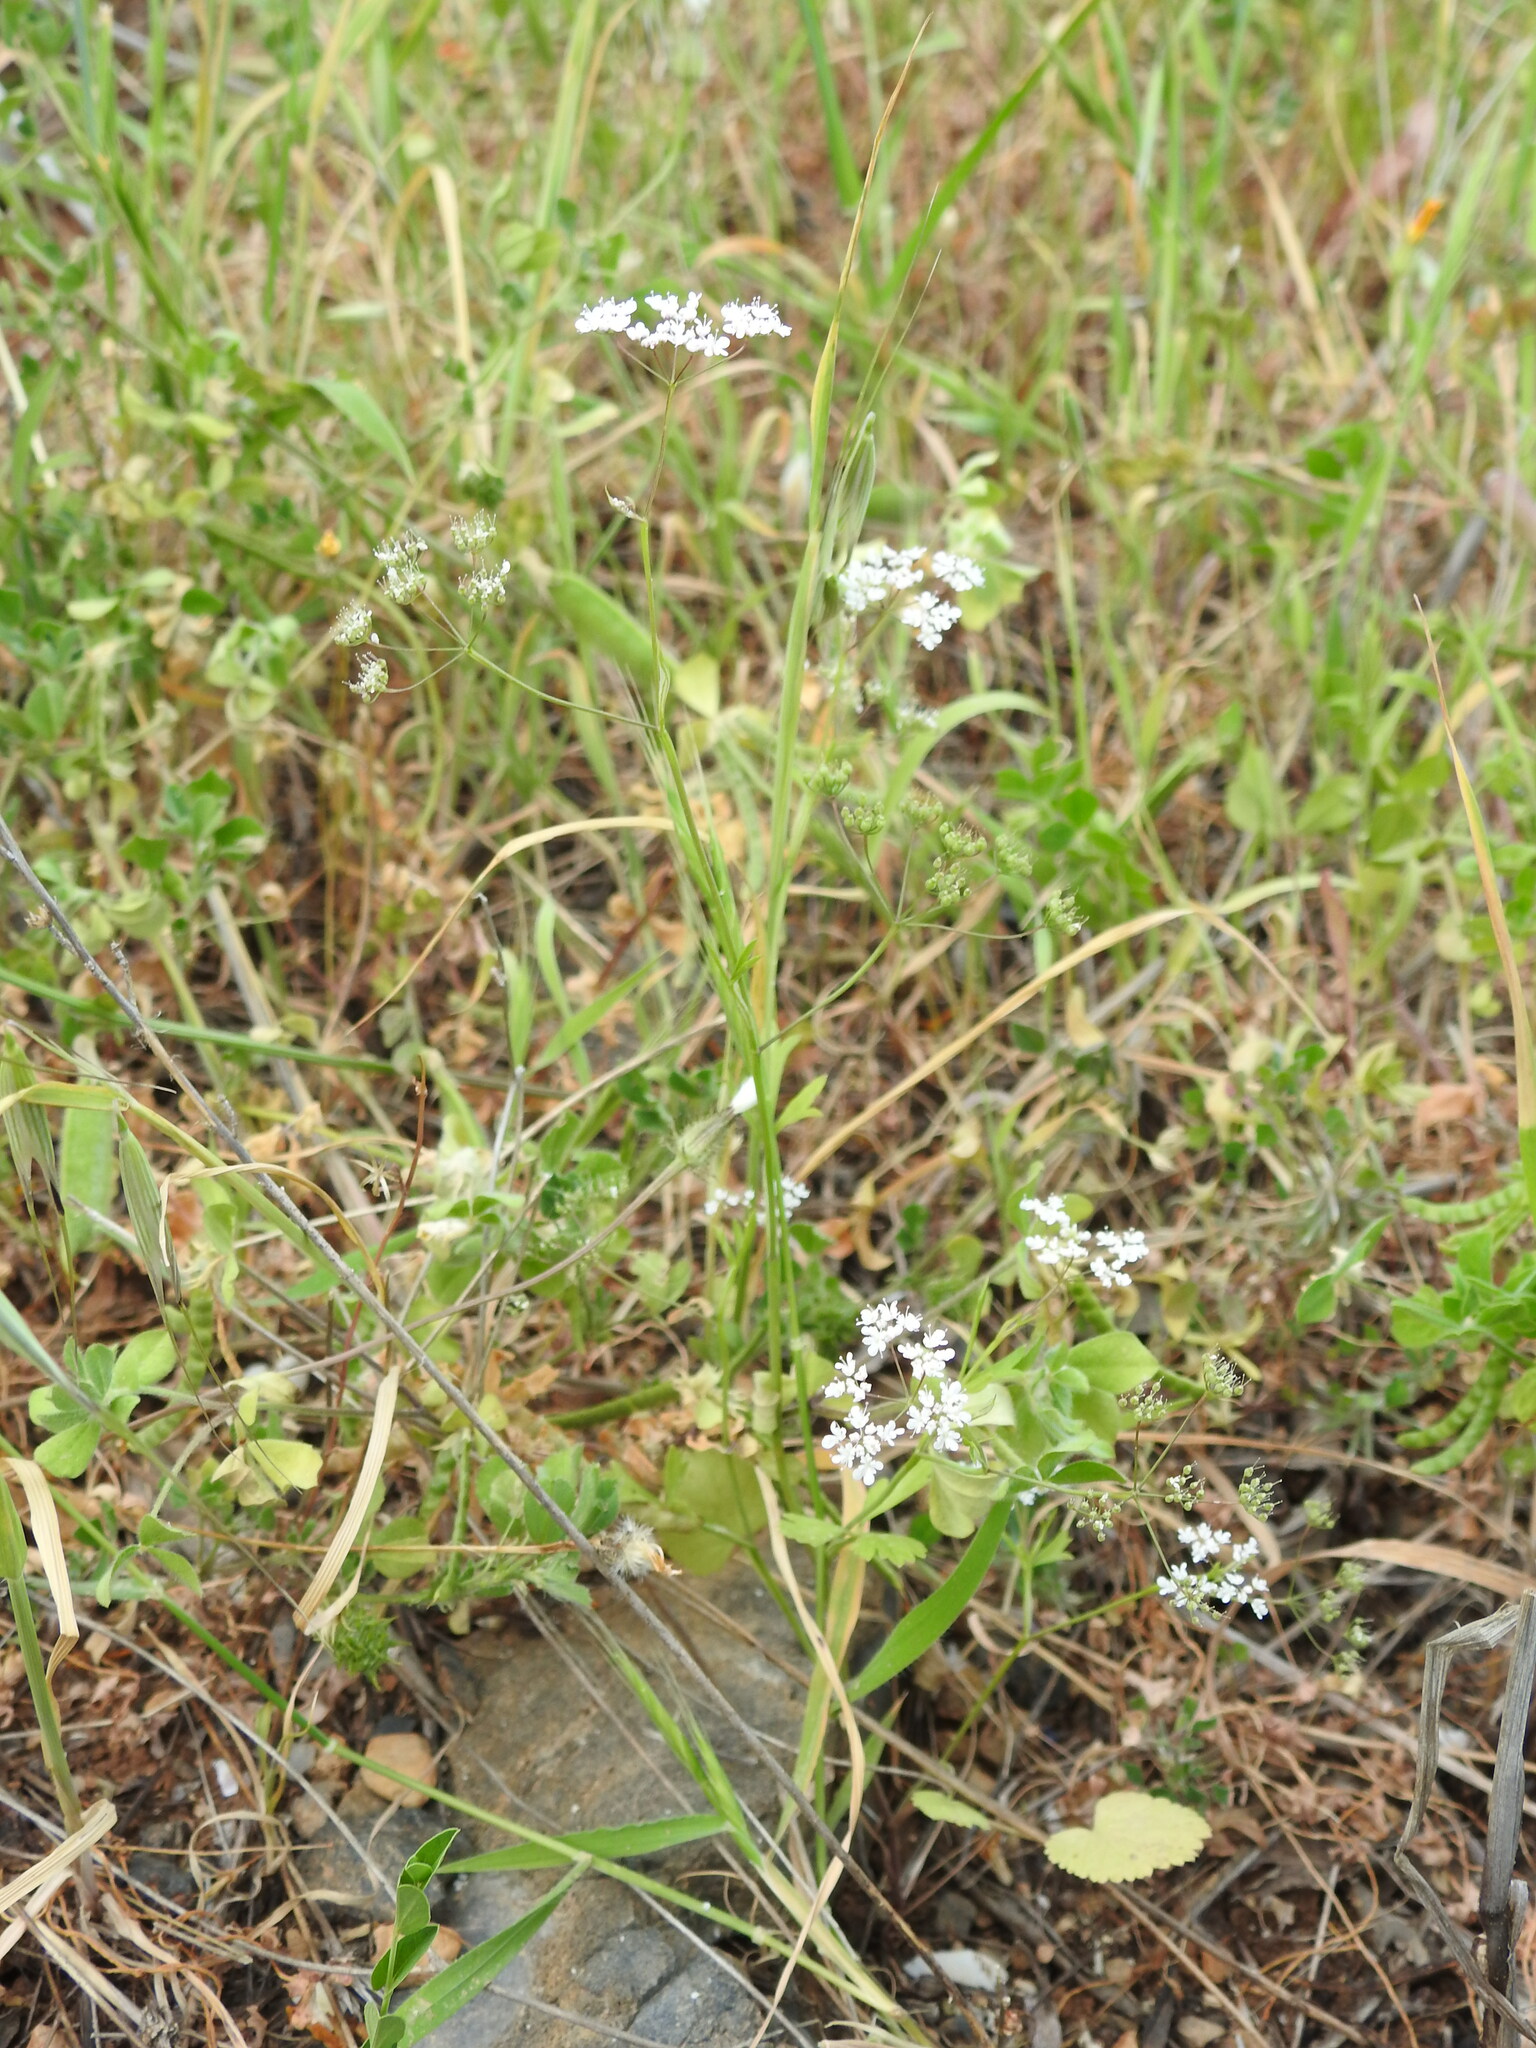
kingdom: Plantae
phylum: Tracheophyta
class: Magnoliopsida
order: Apiales
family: Apiaceae
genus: Pimpinella
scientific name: Pimpinella peregrina
